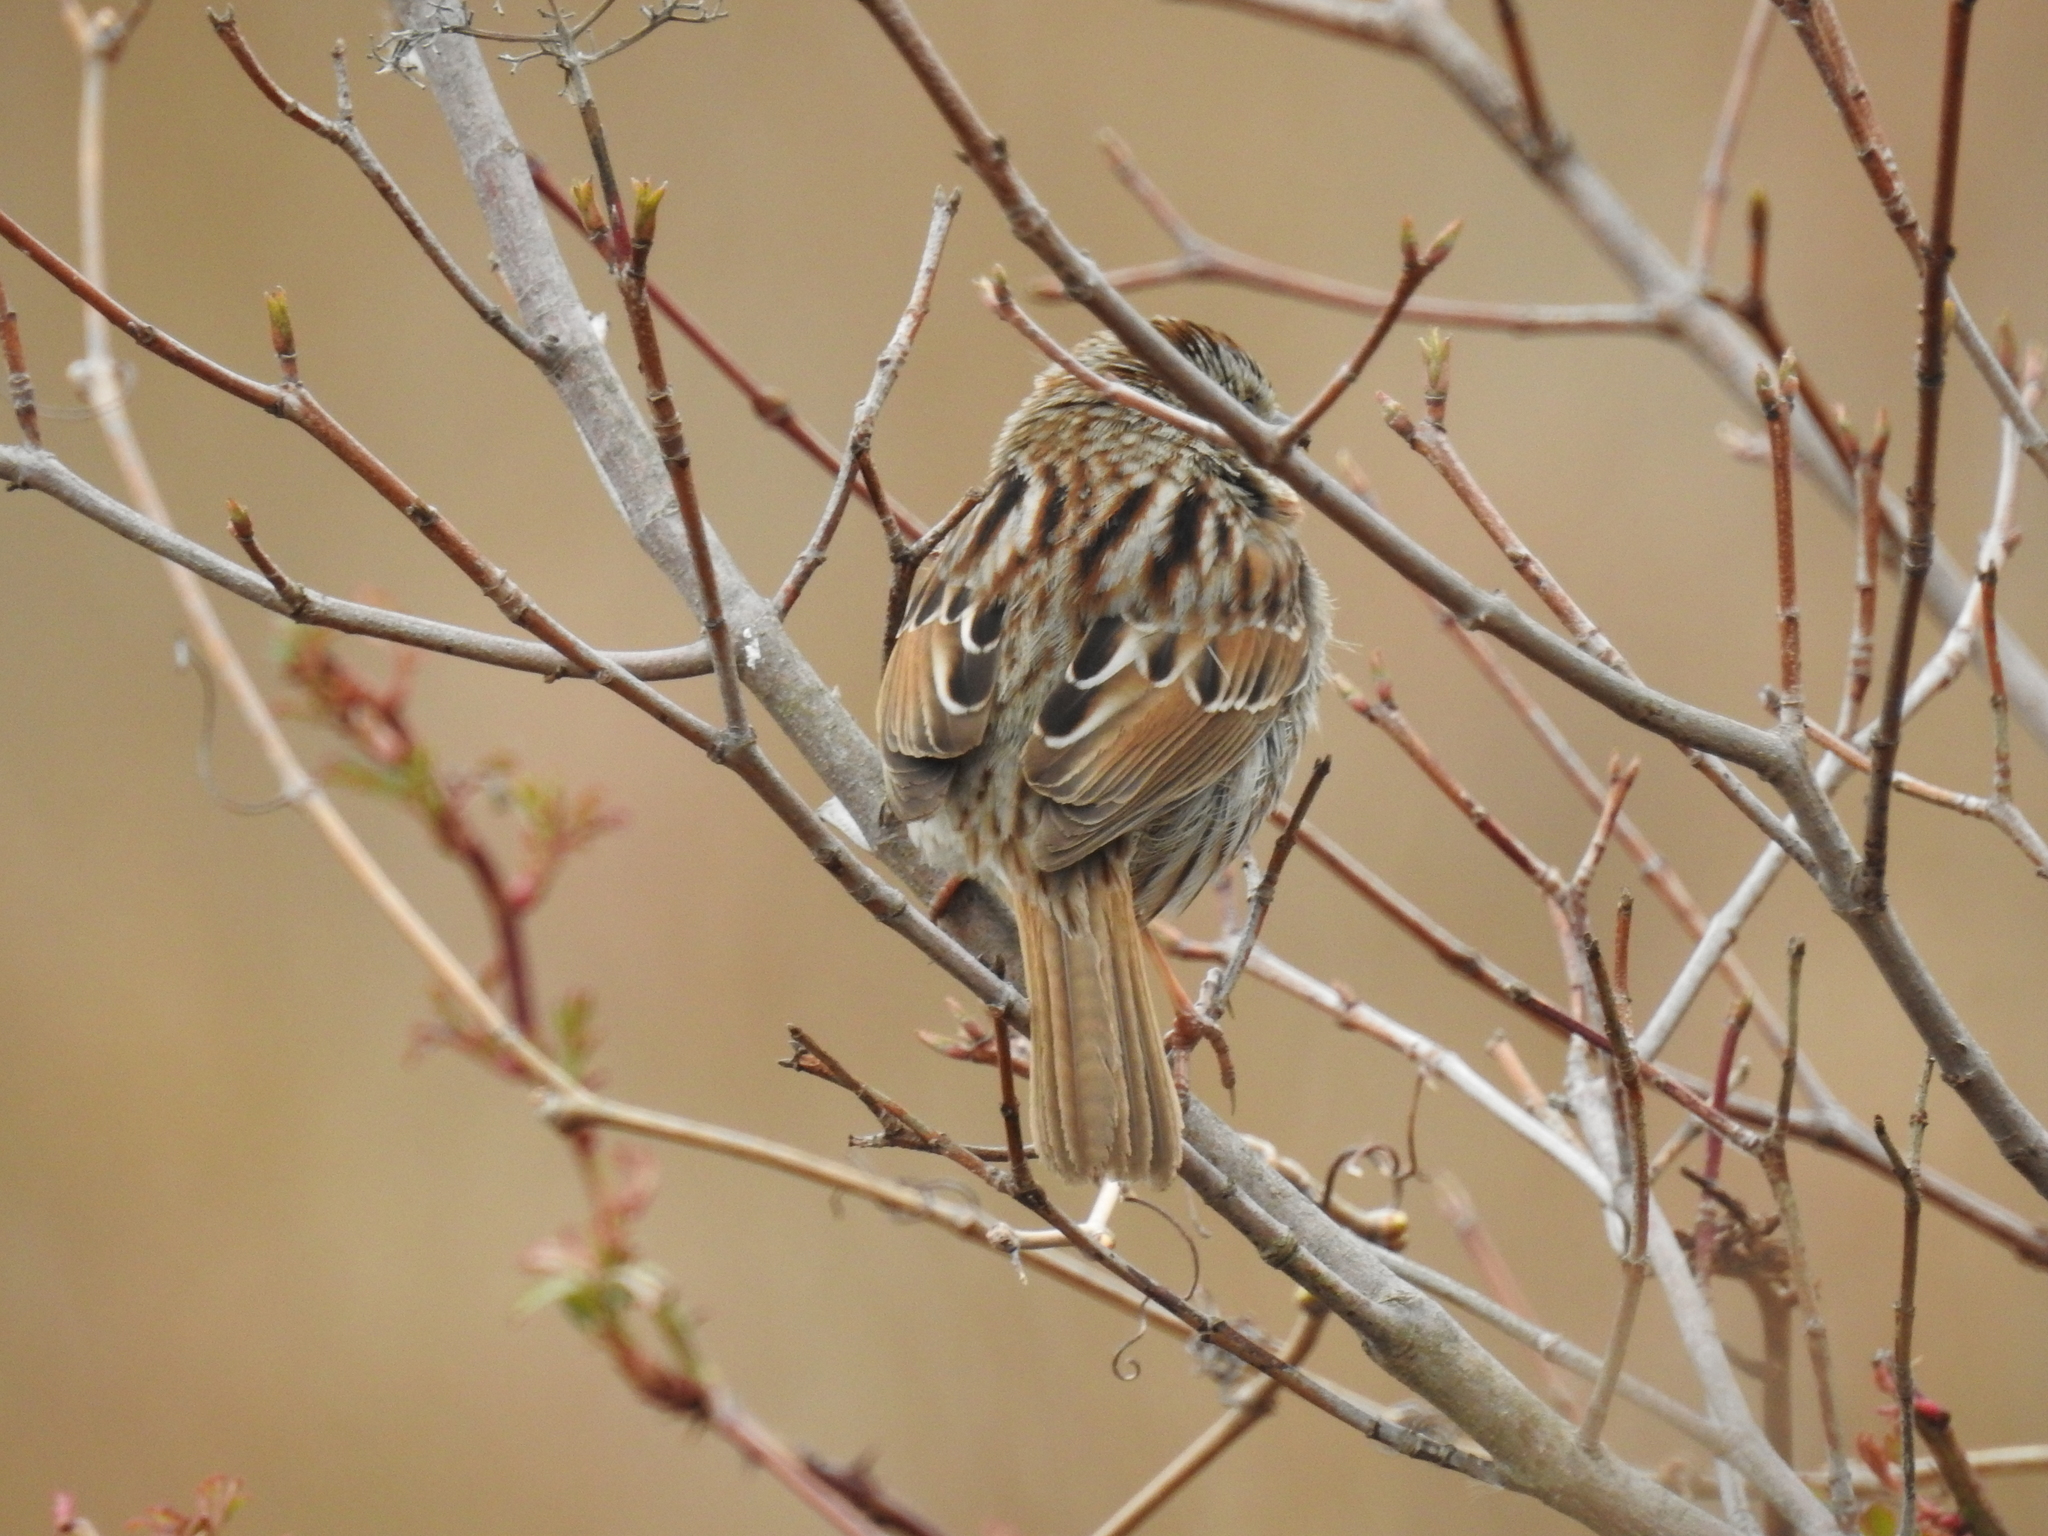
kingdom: Animalia
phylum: Chordata
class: Aves
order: Passeriformes
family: Passerellidae
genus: Melospiza
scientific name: Melospiza melodia
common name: Song sparrow
